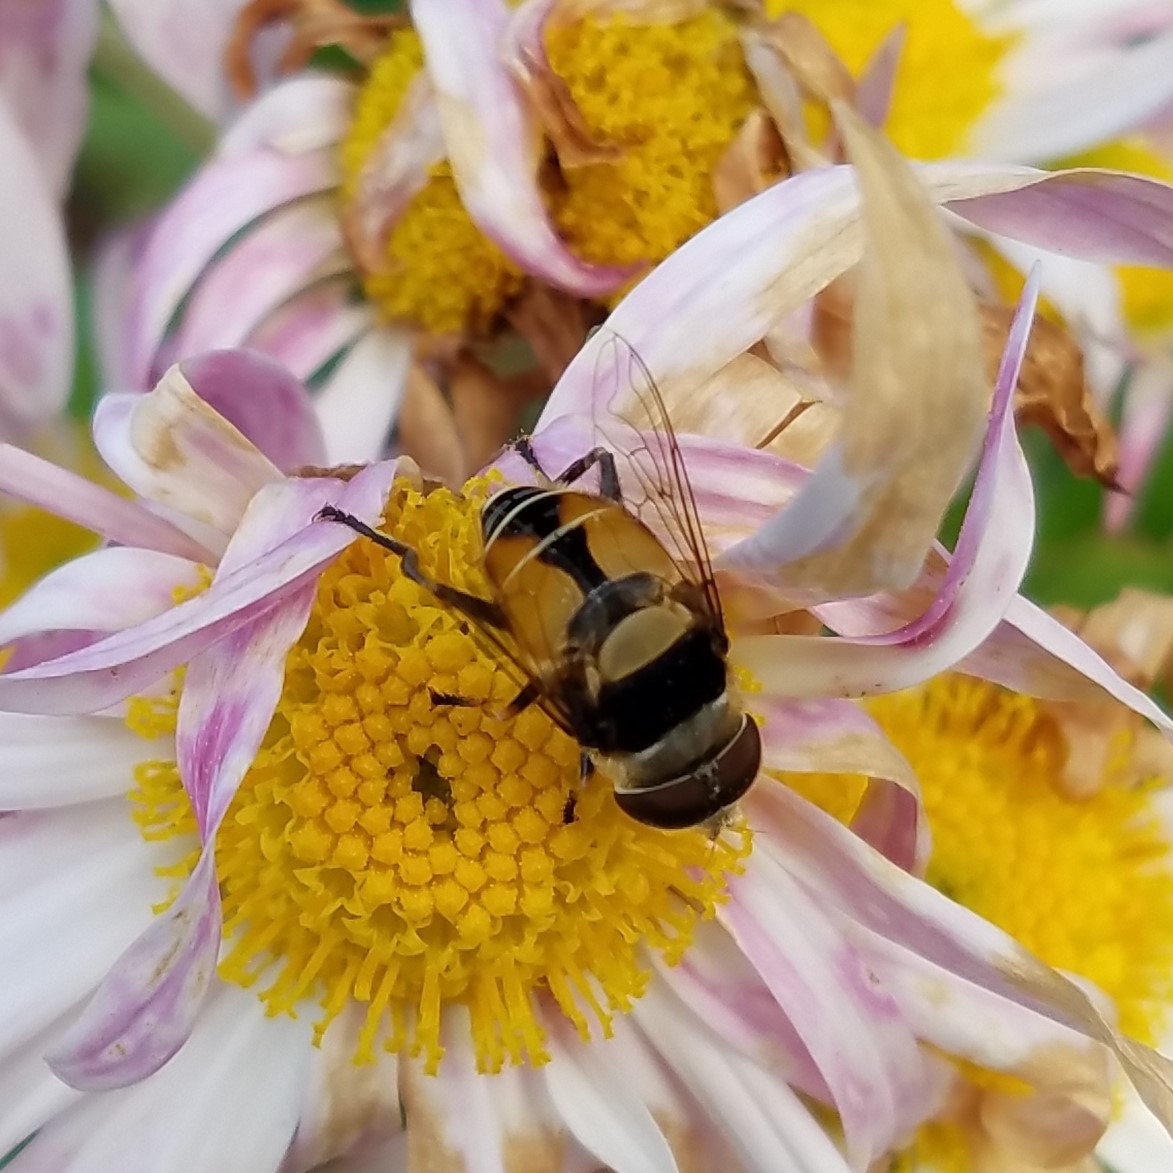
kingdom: Animalia
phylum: Arthropoda
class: Insecta
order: Diptera
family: Syrphidae
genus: Palpada
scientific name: Palpada pusilla
